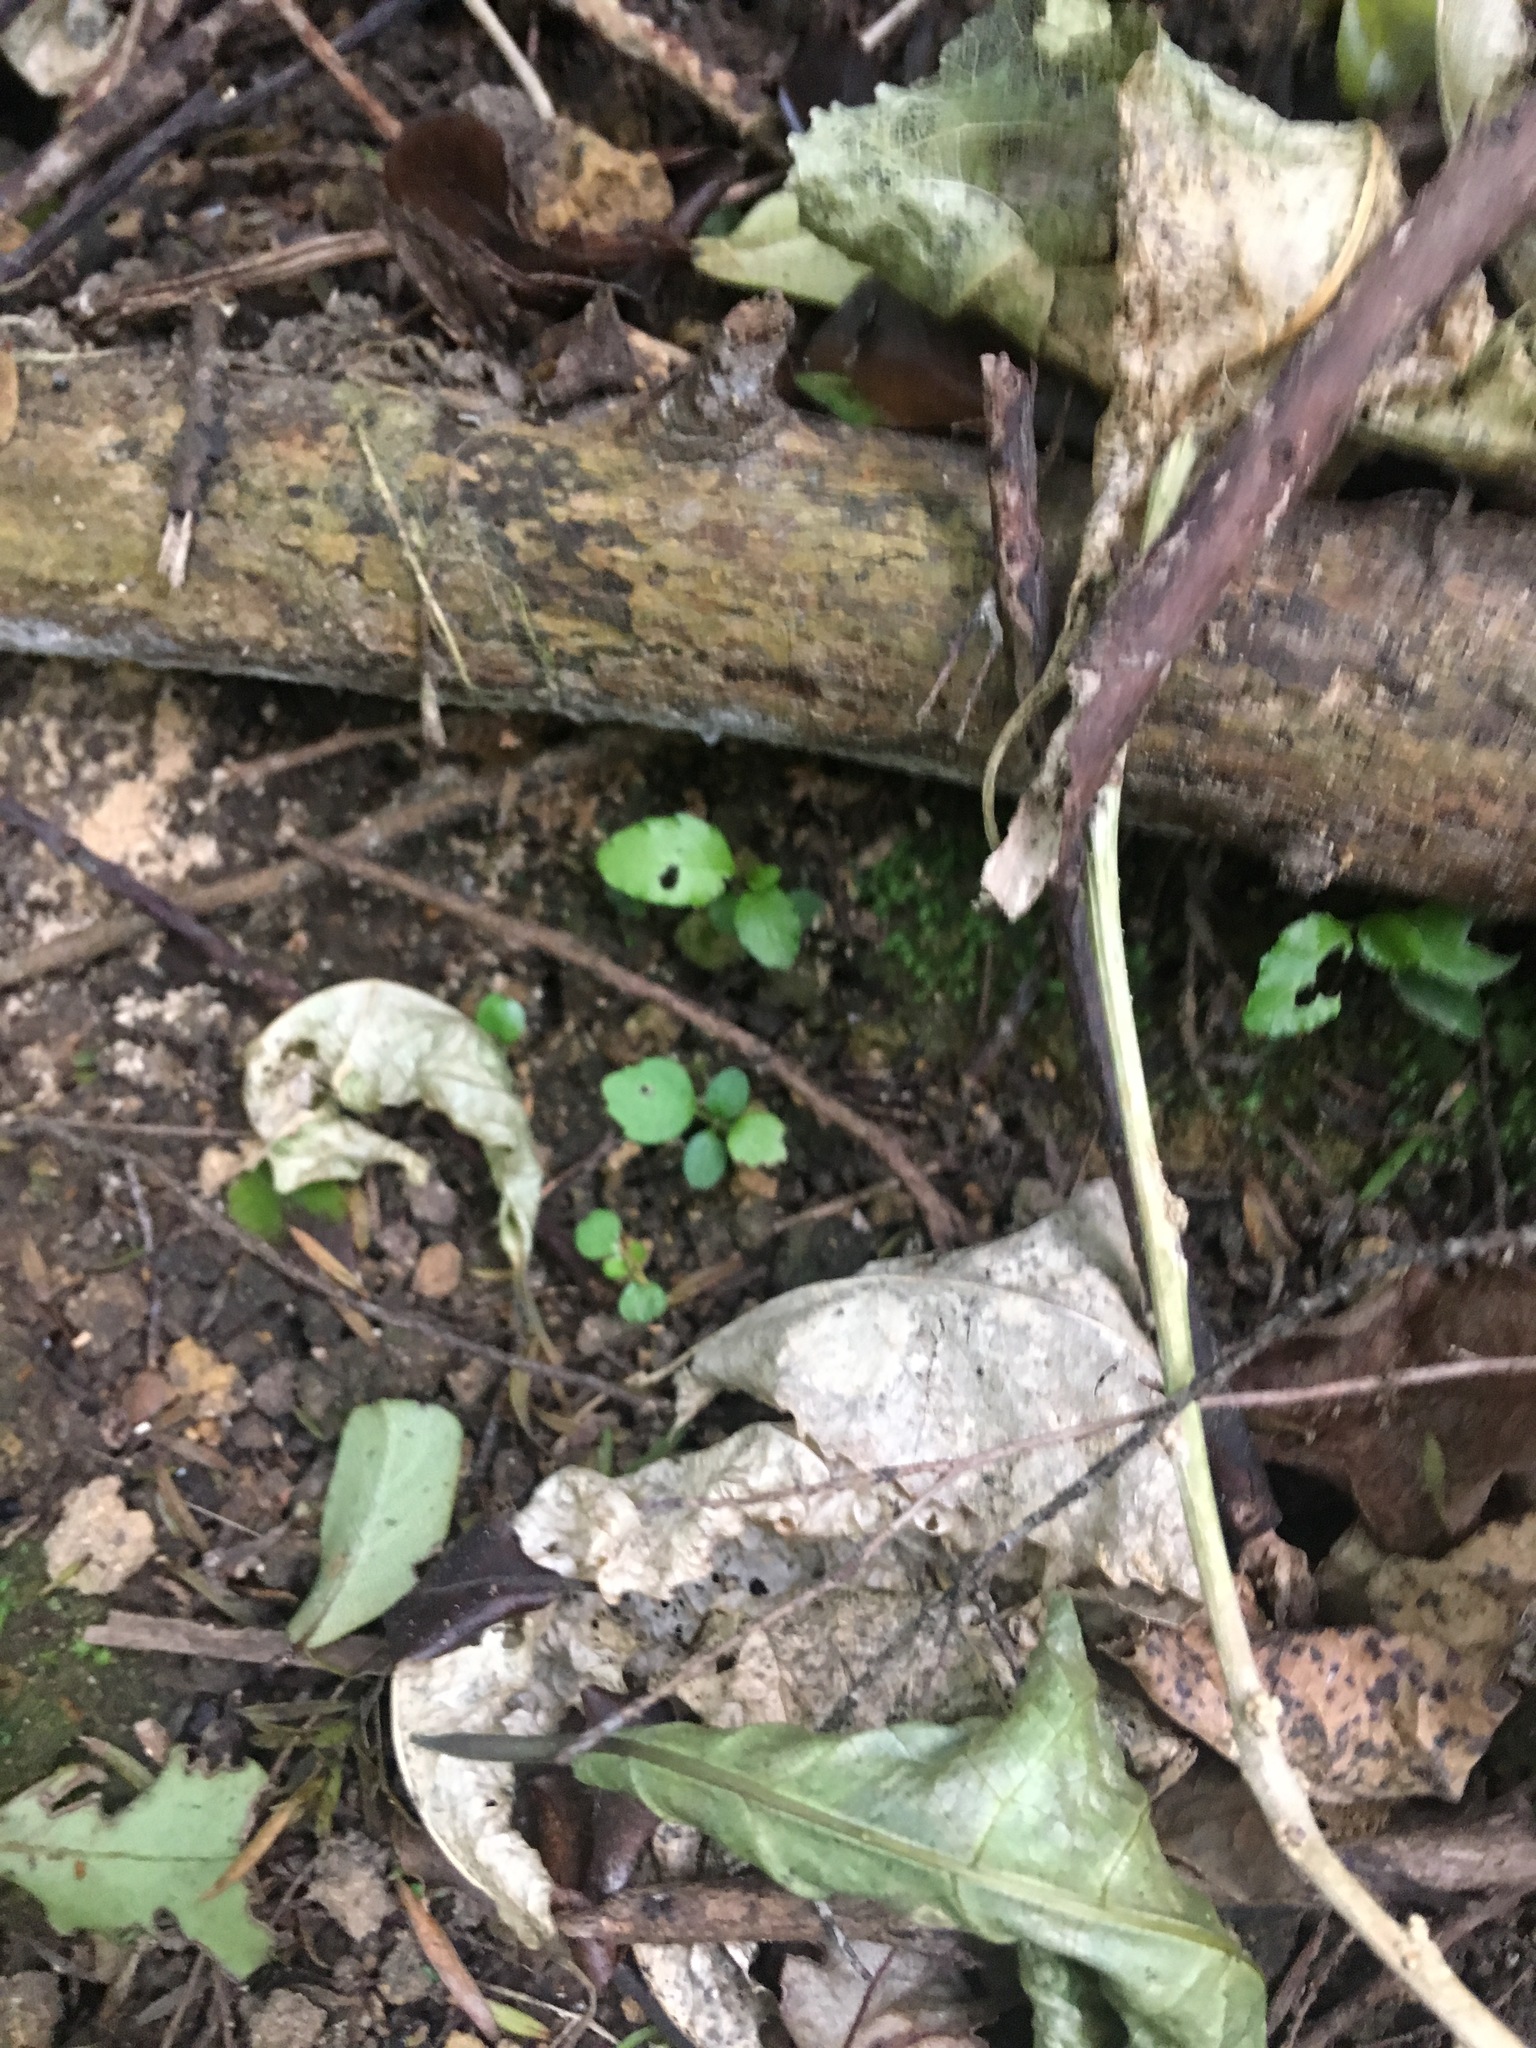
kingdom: Plantae
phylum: Tracheophyta
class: Magnoliopsida
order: Malpighiales
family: Violaceae
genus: Melicytus
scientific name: Melicytus ramiflorus
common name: Mahoe
